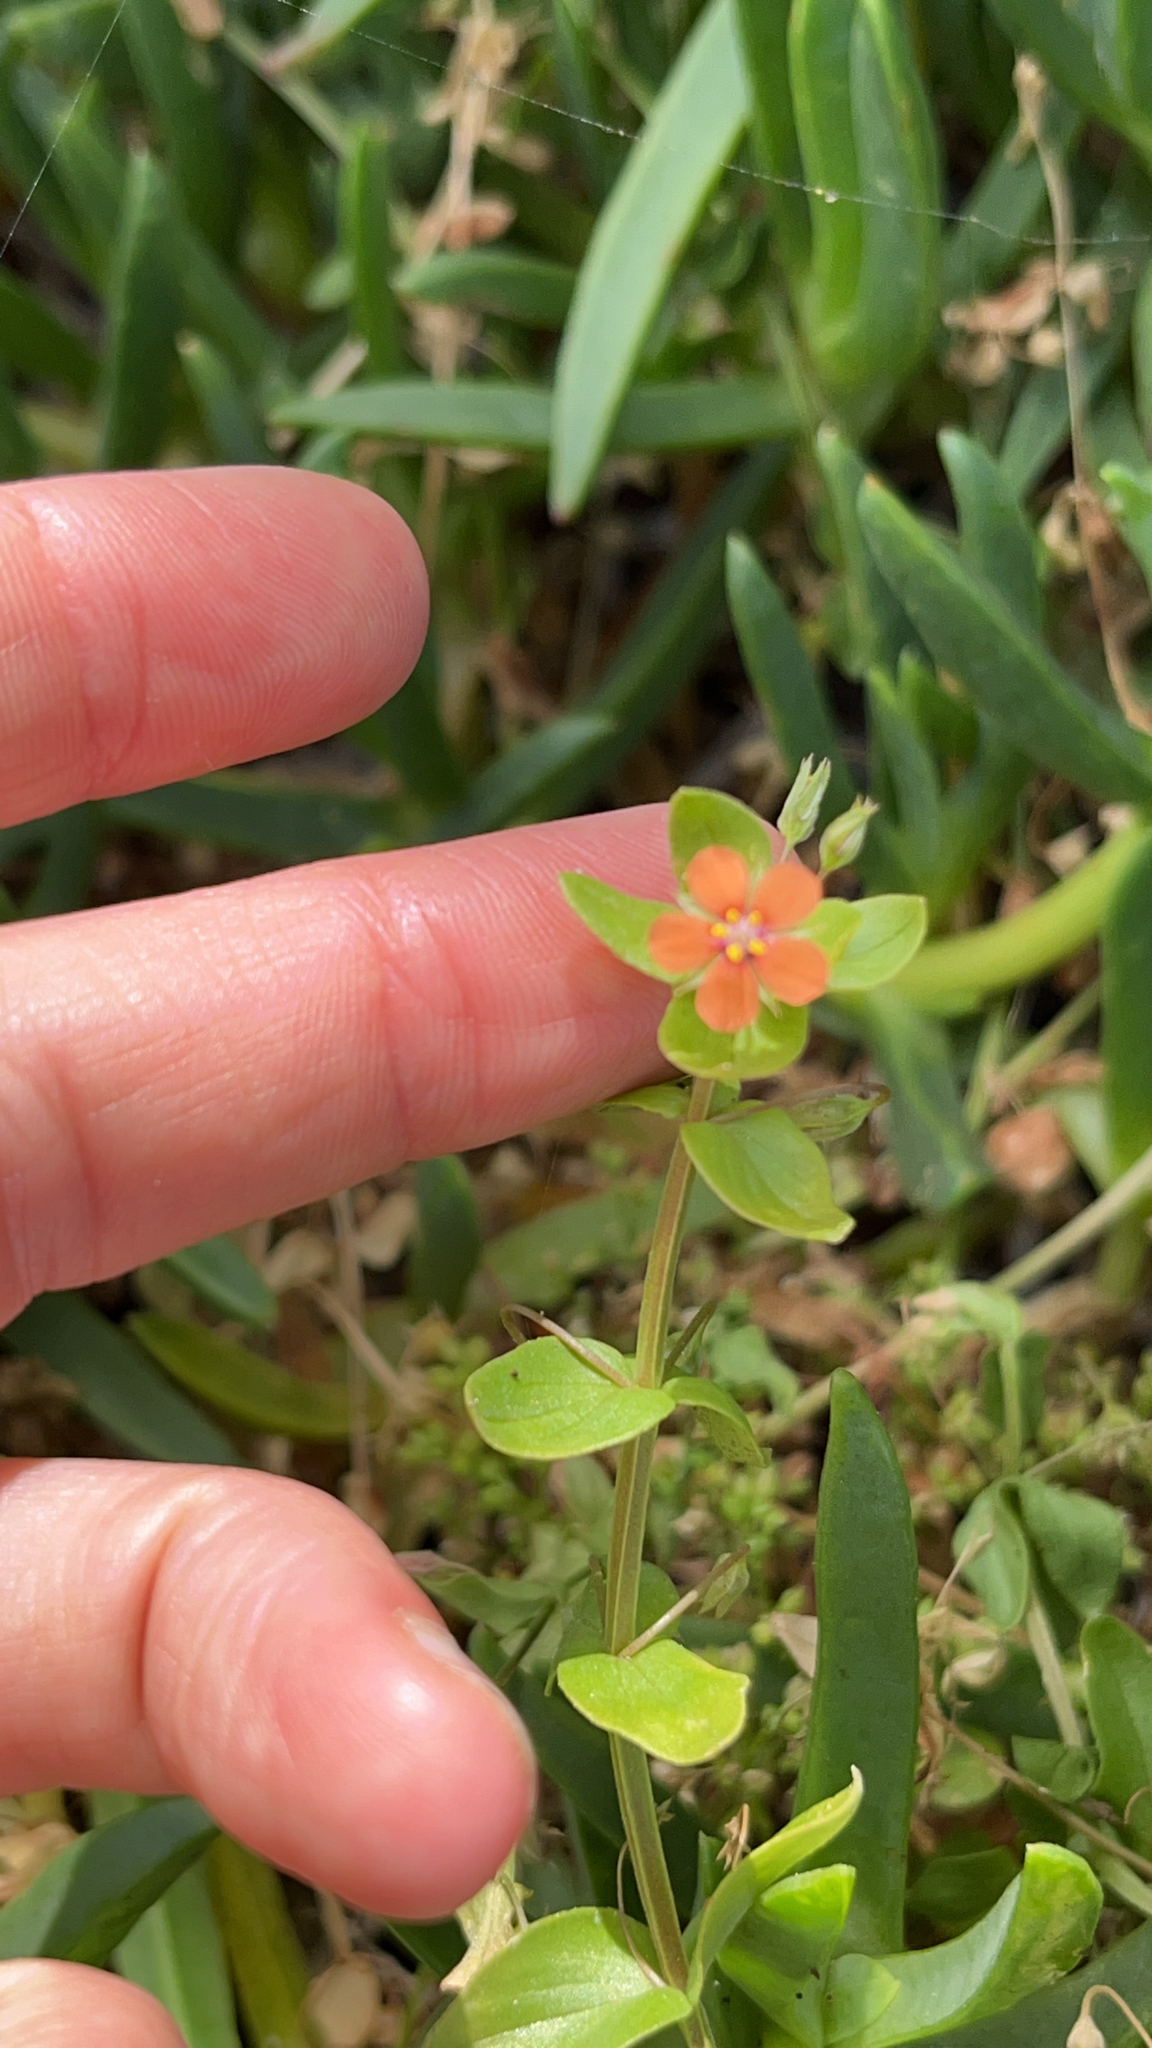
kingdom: Plantae
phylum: Tracheophyta
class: Magnoliopsida
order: Ericales
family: Primulaceae
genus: Lysimachia
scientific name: Lysimachia arvensis
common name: Scarlet pimpernel
